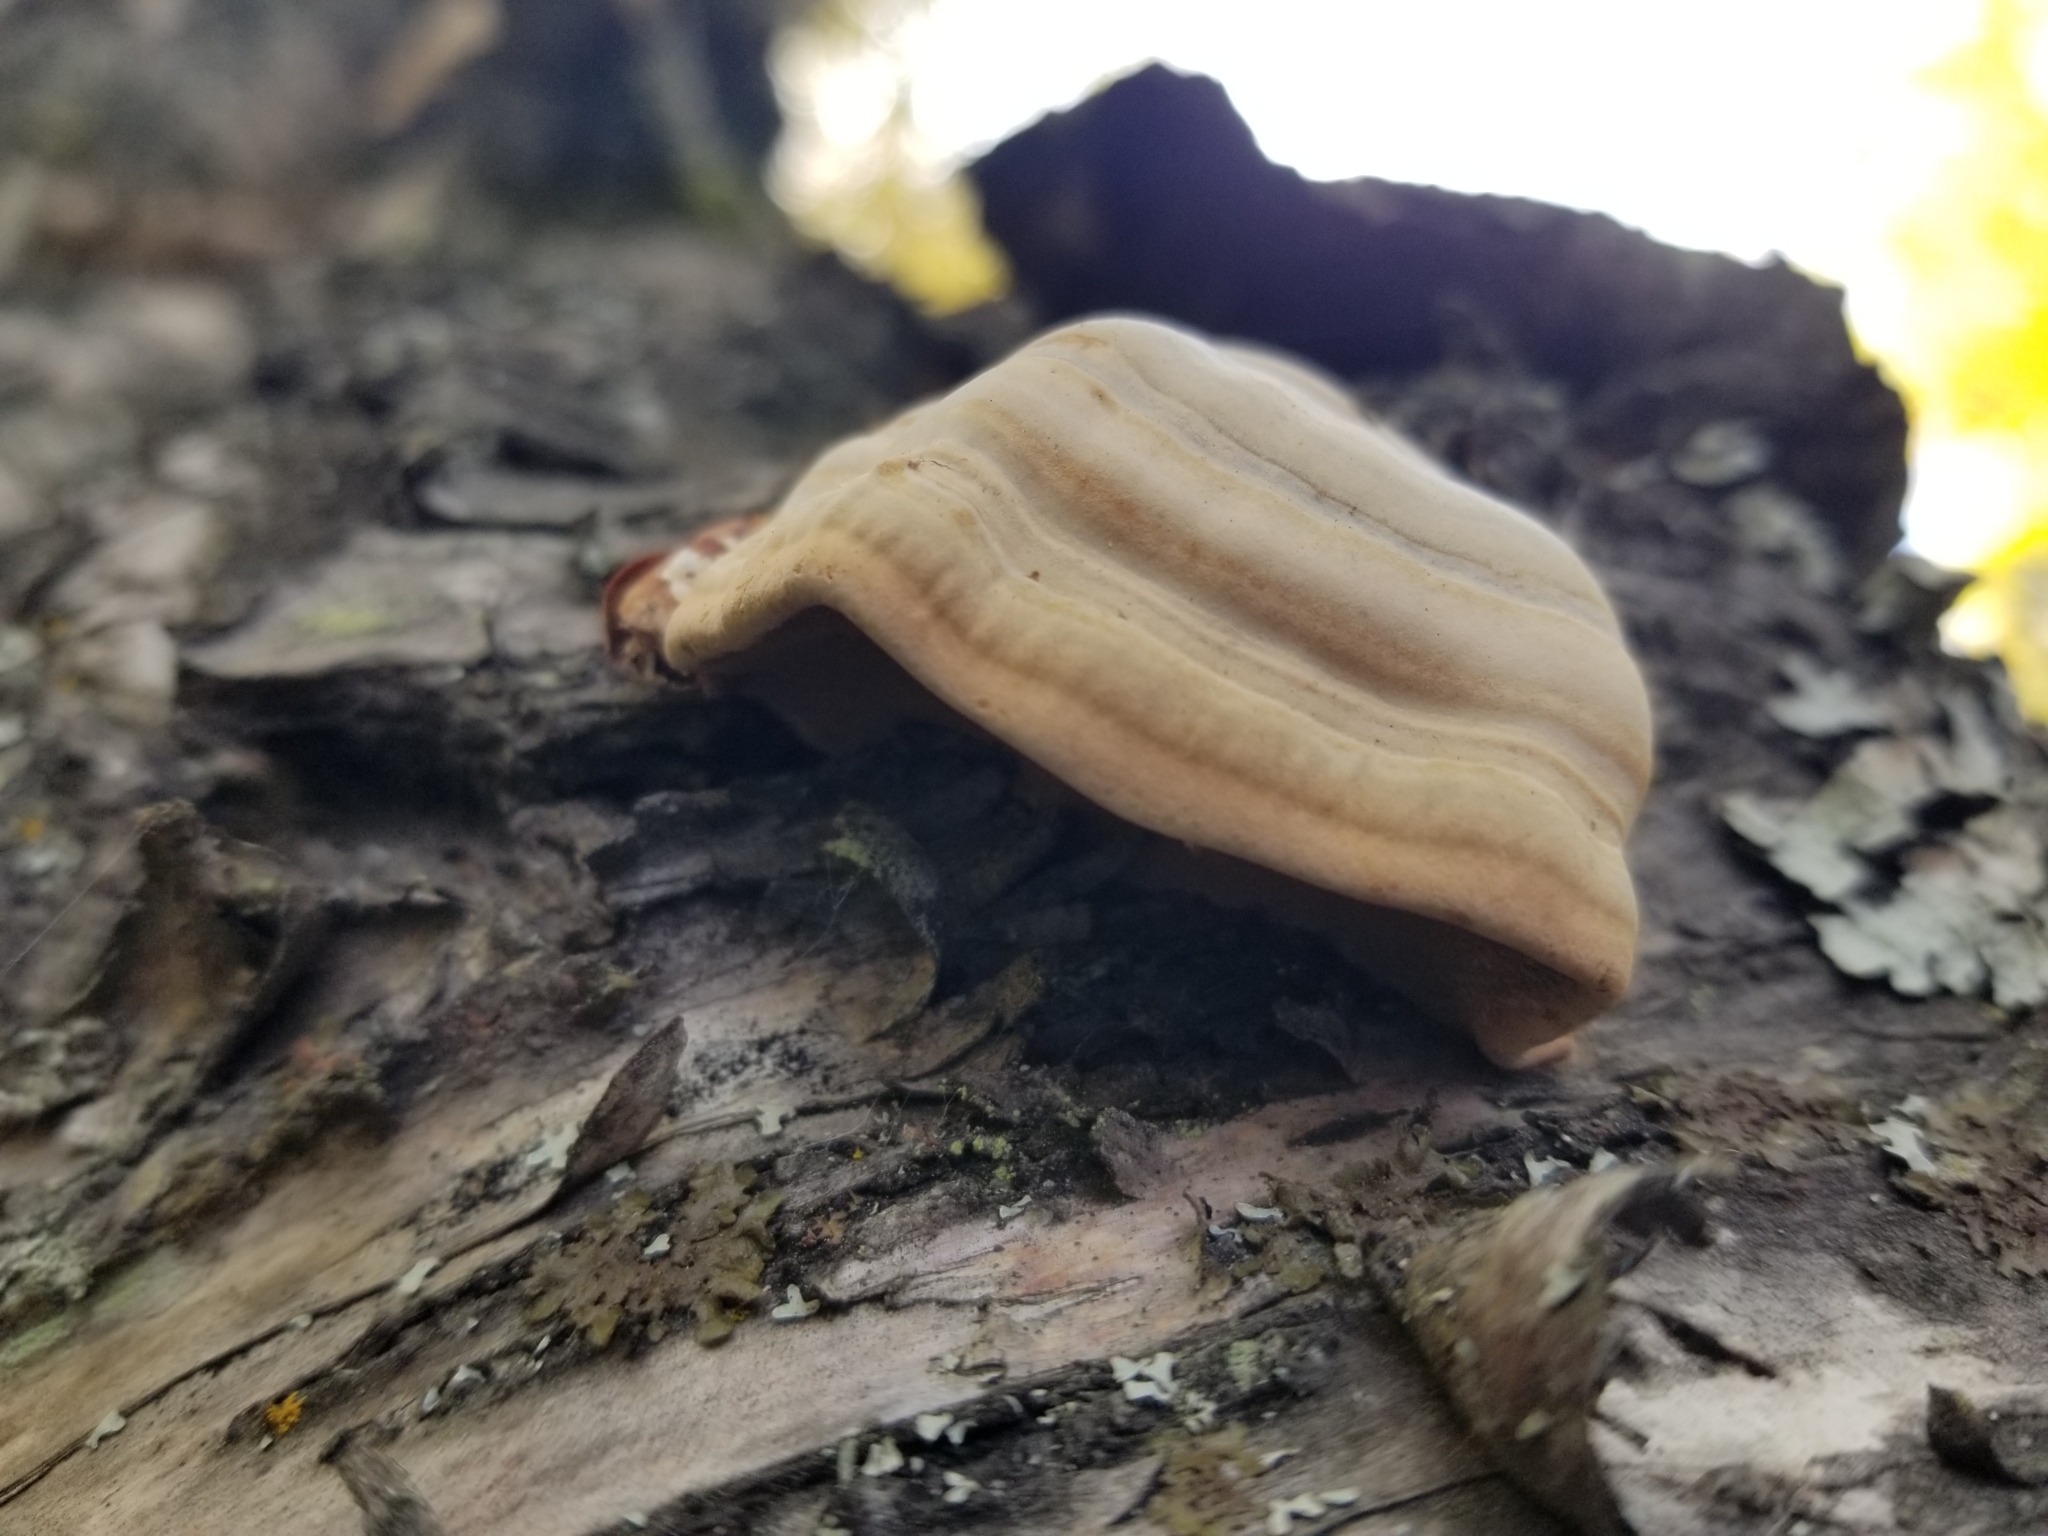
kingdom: Fungi
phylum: Basidiomycota
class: Agaricomycetes
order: Polyporales
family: Polyporaceae
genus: Fomes
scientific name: Fomes fomentarius
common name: Hoof fungus
